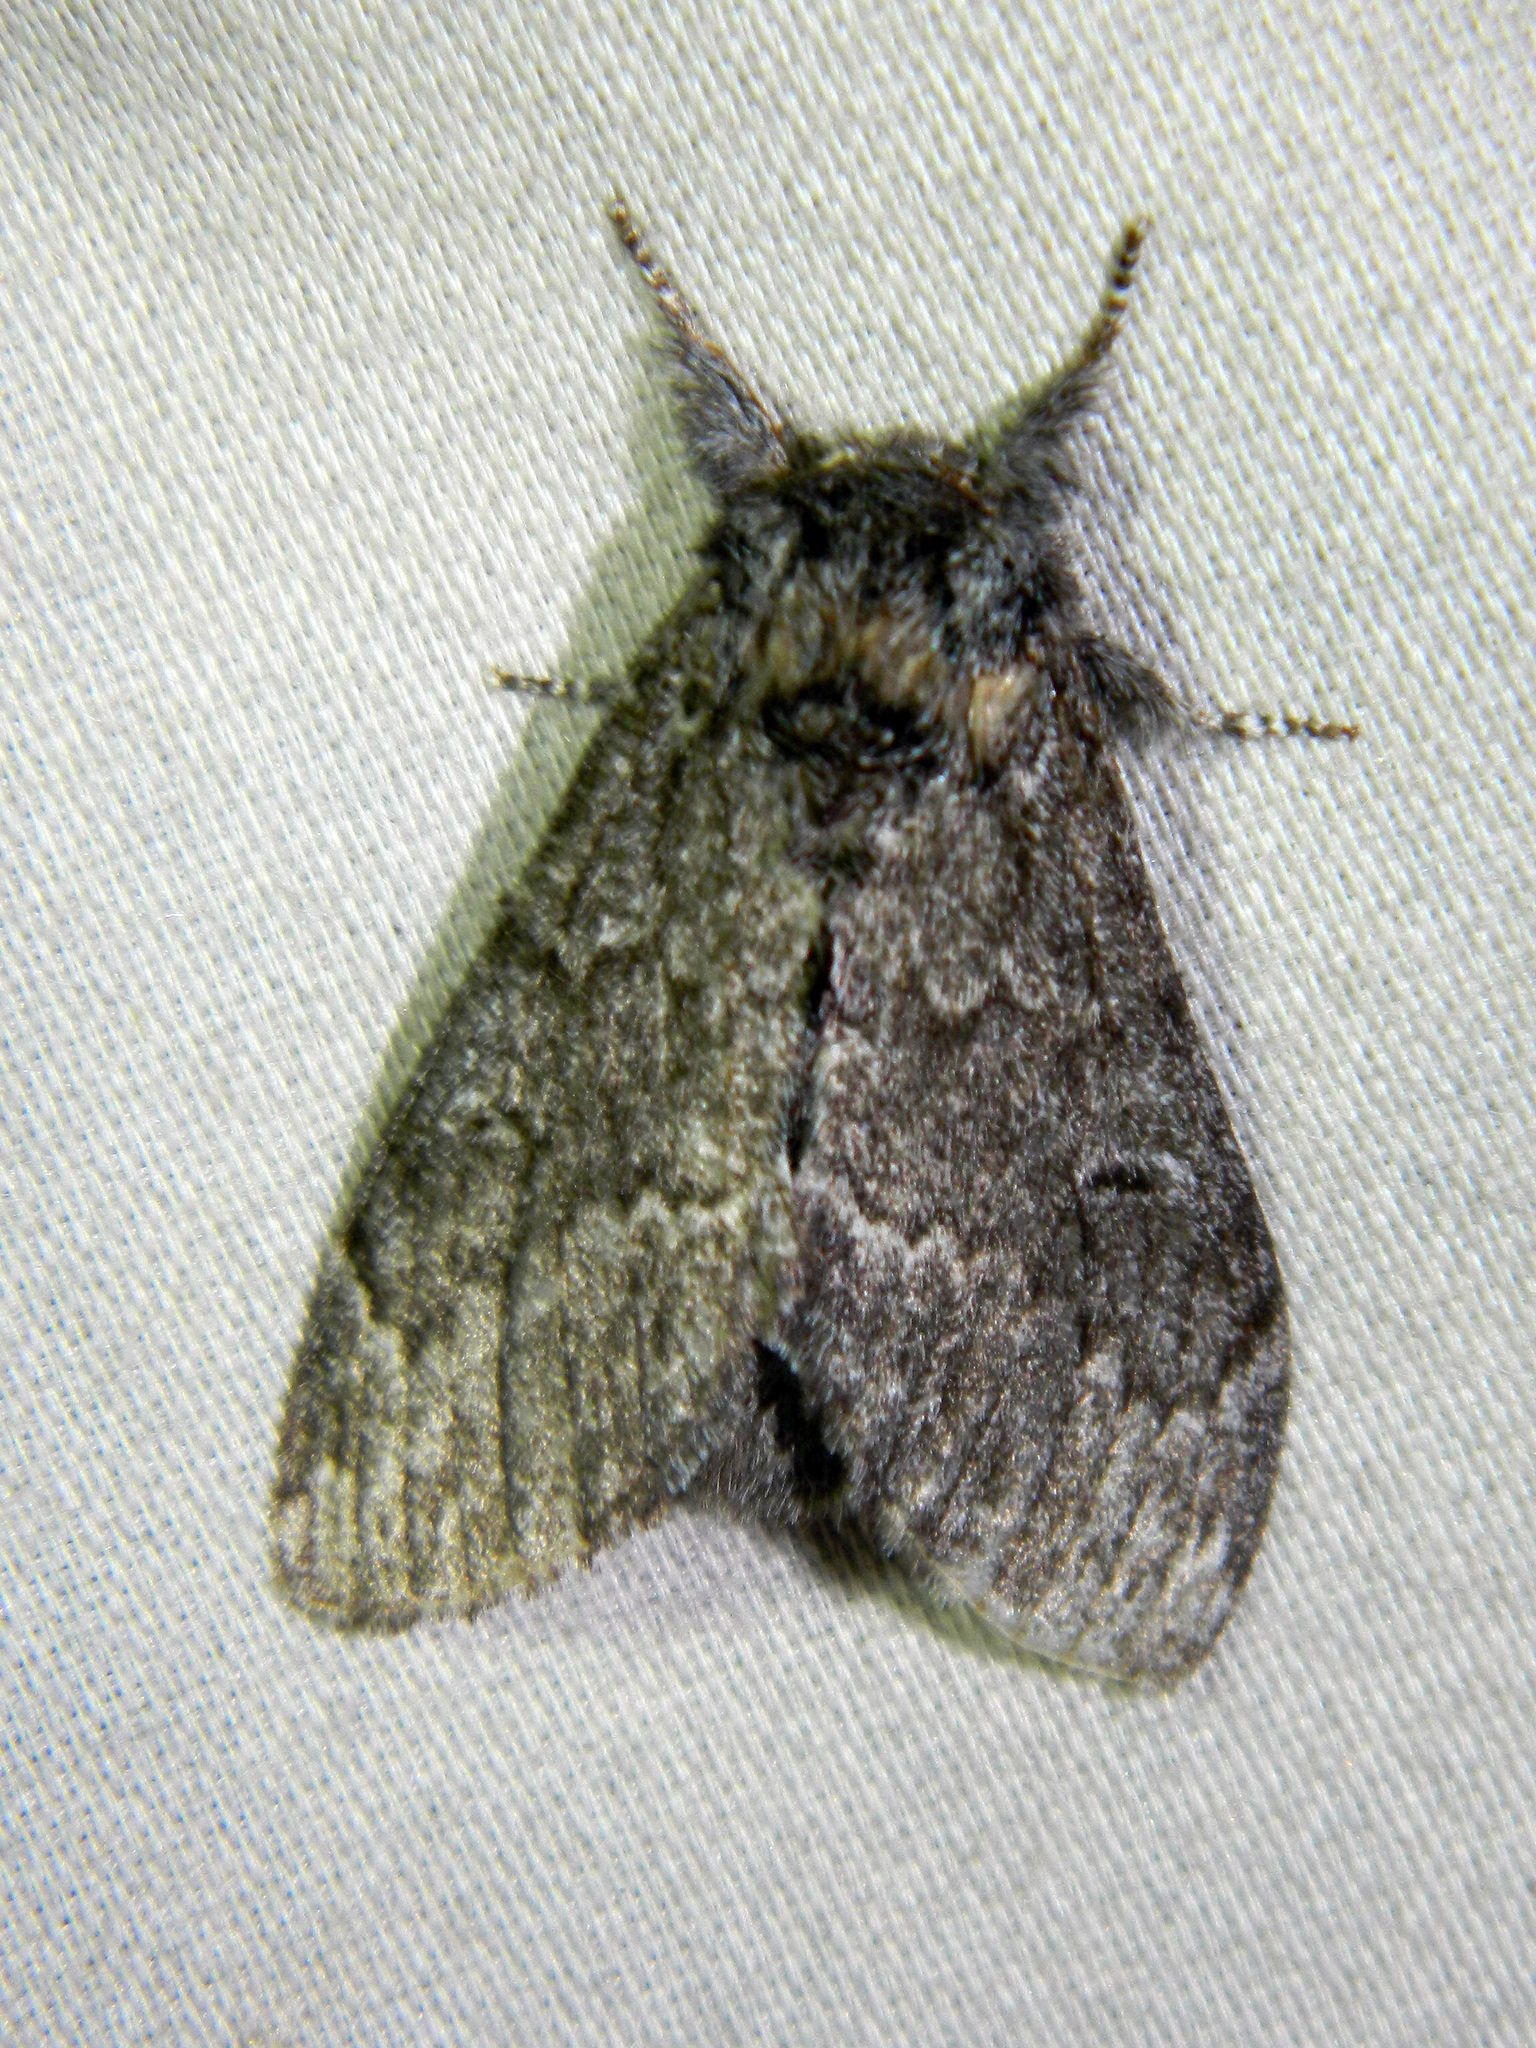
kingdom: Animalia
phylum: Arthropoda
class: Insecta
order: Lepidoptera
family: Notodontidae
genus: Notodonta
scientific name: Notodonta torva
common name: Large dark prominent
